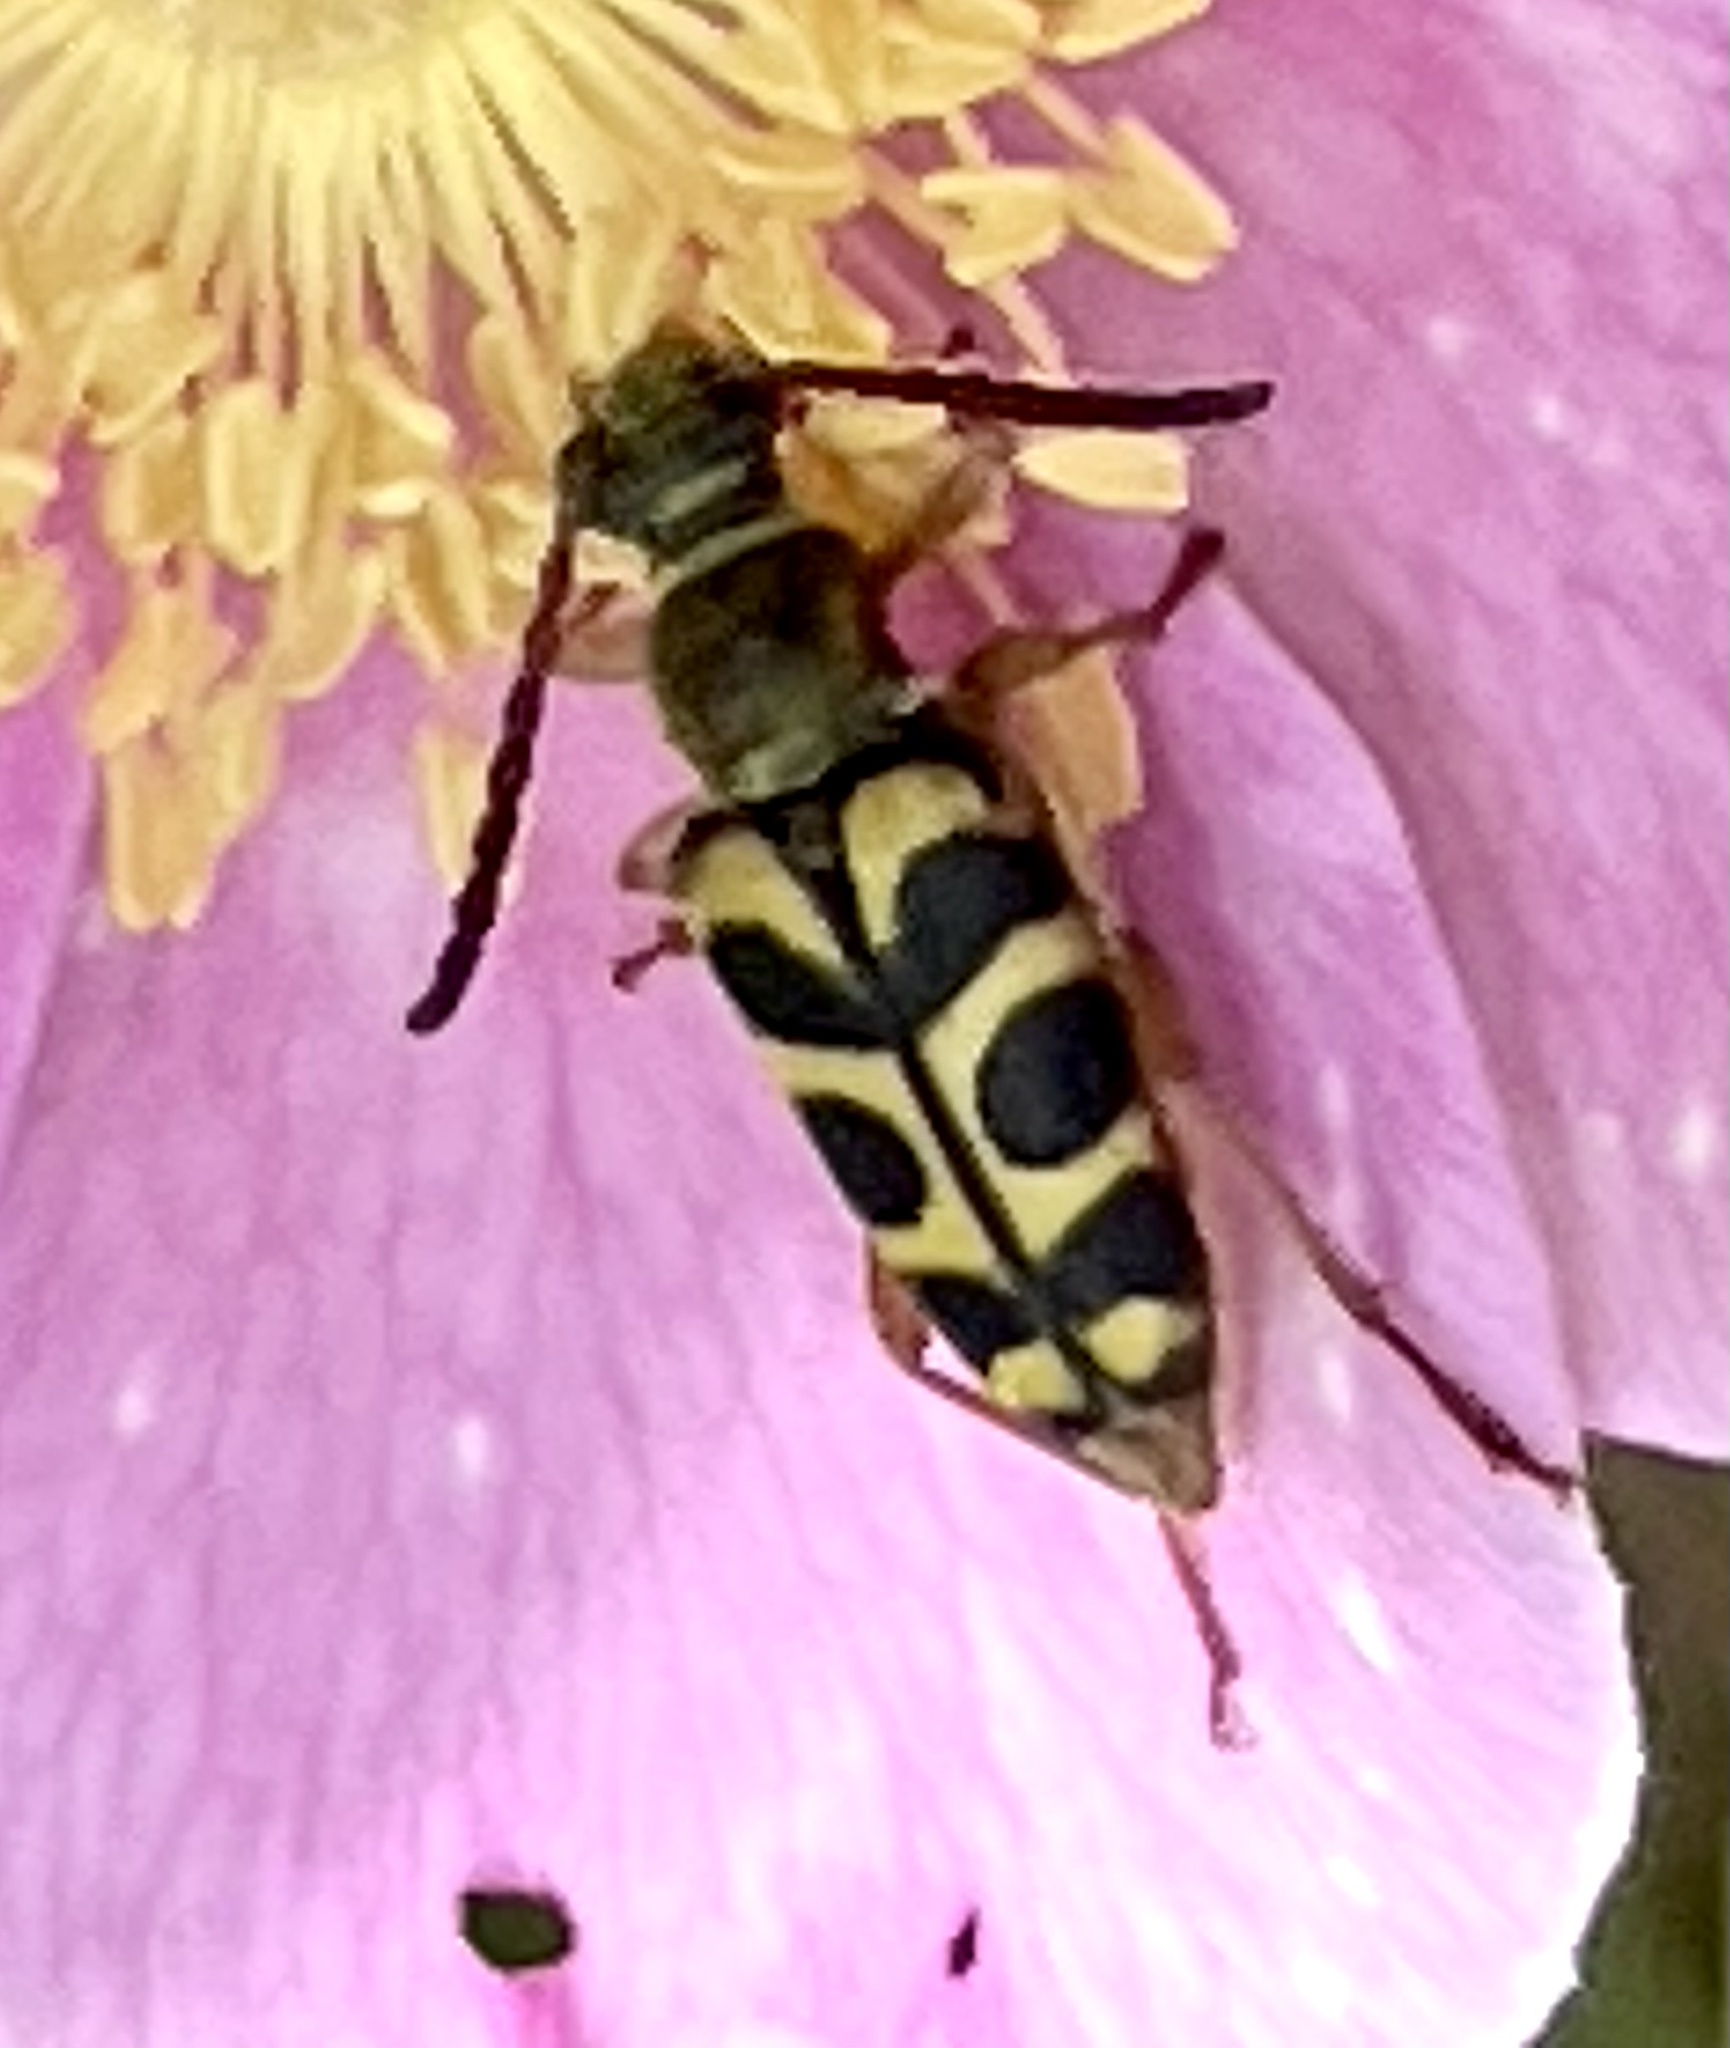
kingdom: Animalia
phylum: Arthropoda
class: Insecta
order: Coleoptera
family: Cerambycidae
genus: Strophiona
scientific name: Strophiona tigrina
